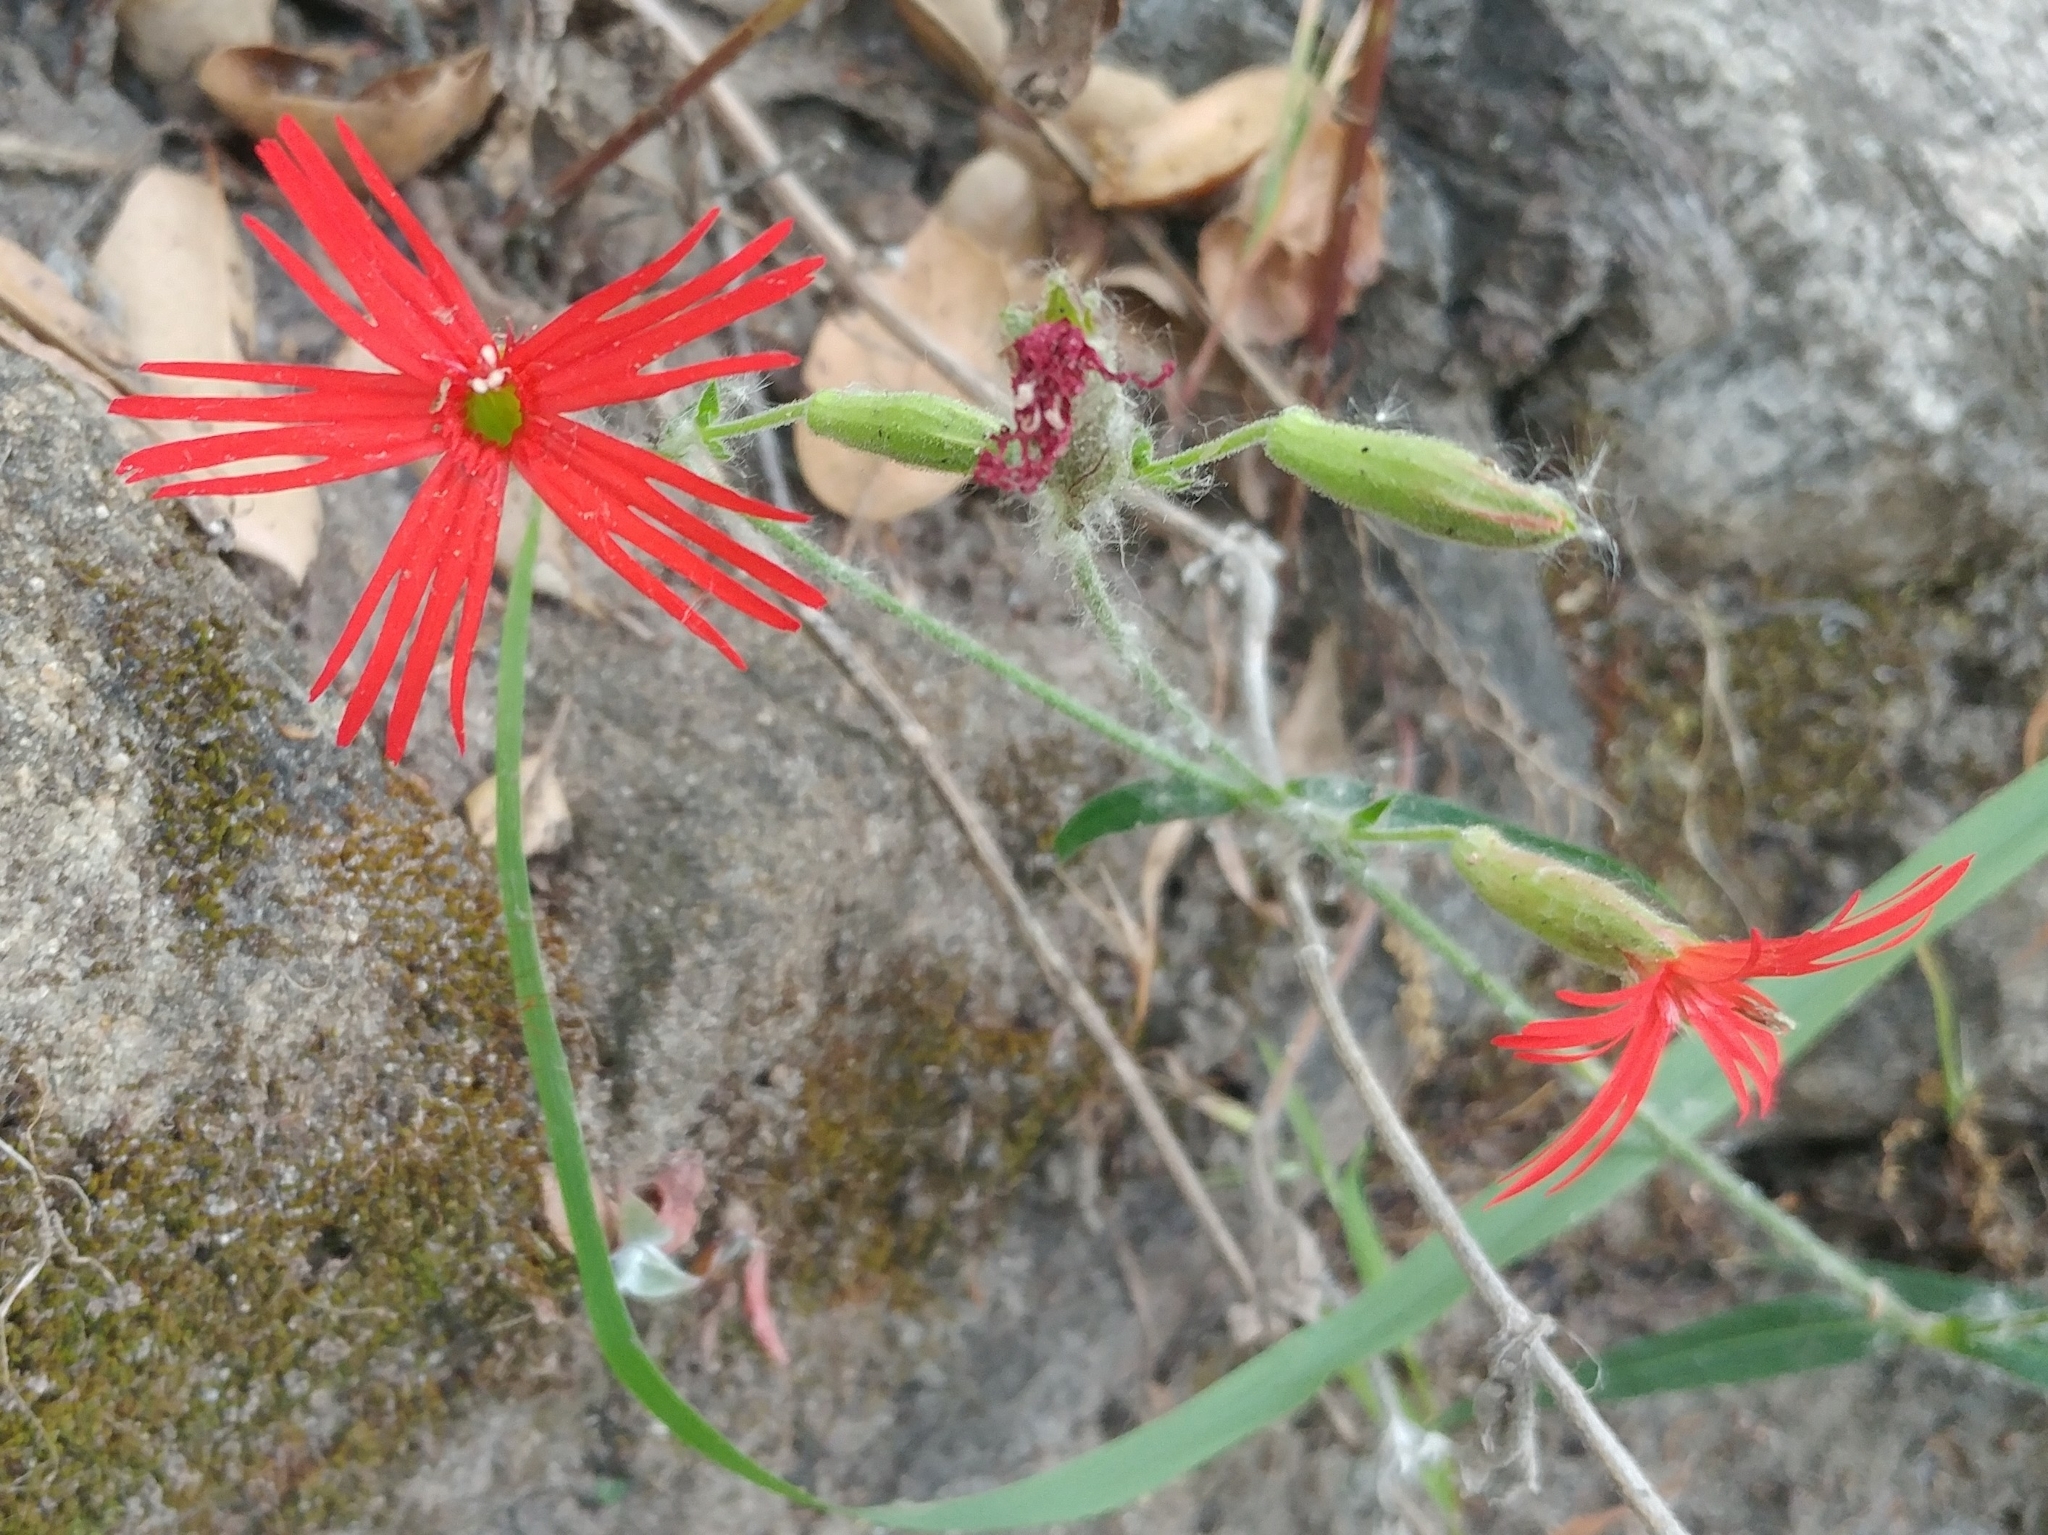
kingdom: Plantae
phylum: Tracheophyta
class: Magnoliopsida
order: Caryophyllales
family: Caryophyllaceae
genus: Silene
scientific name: Silene laciniata
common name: Indian-pink
